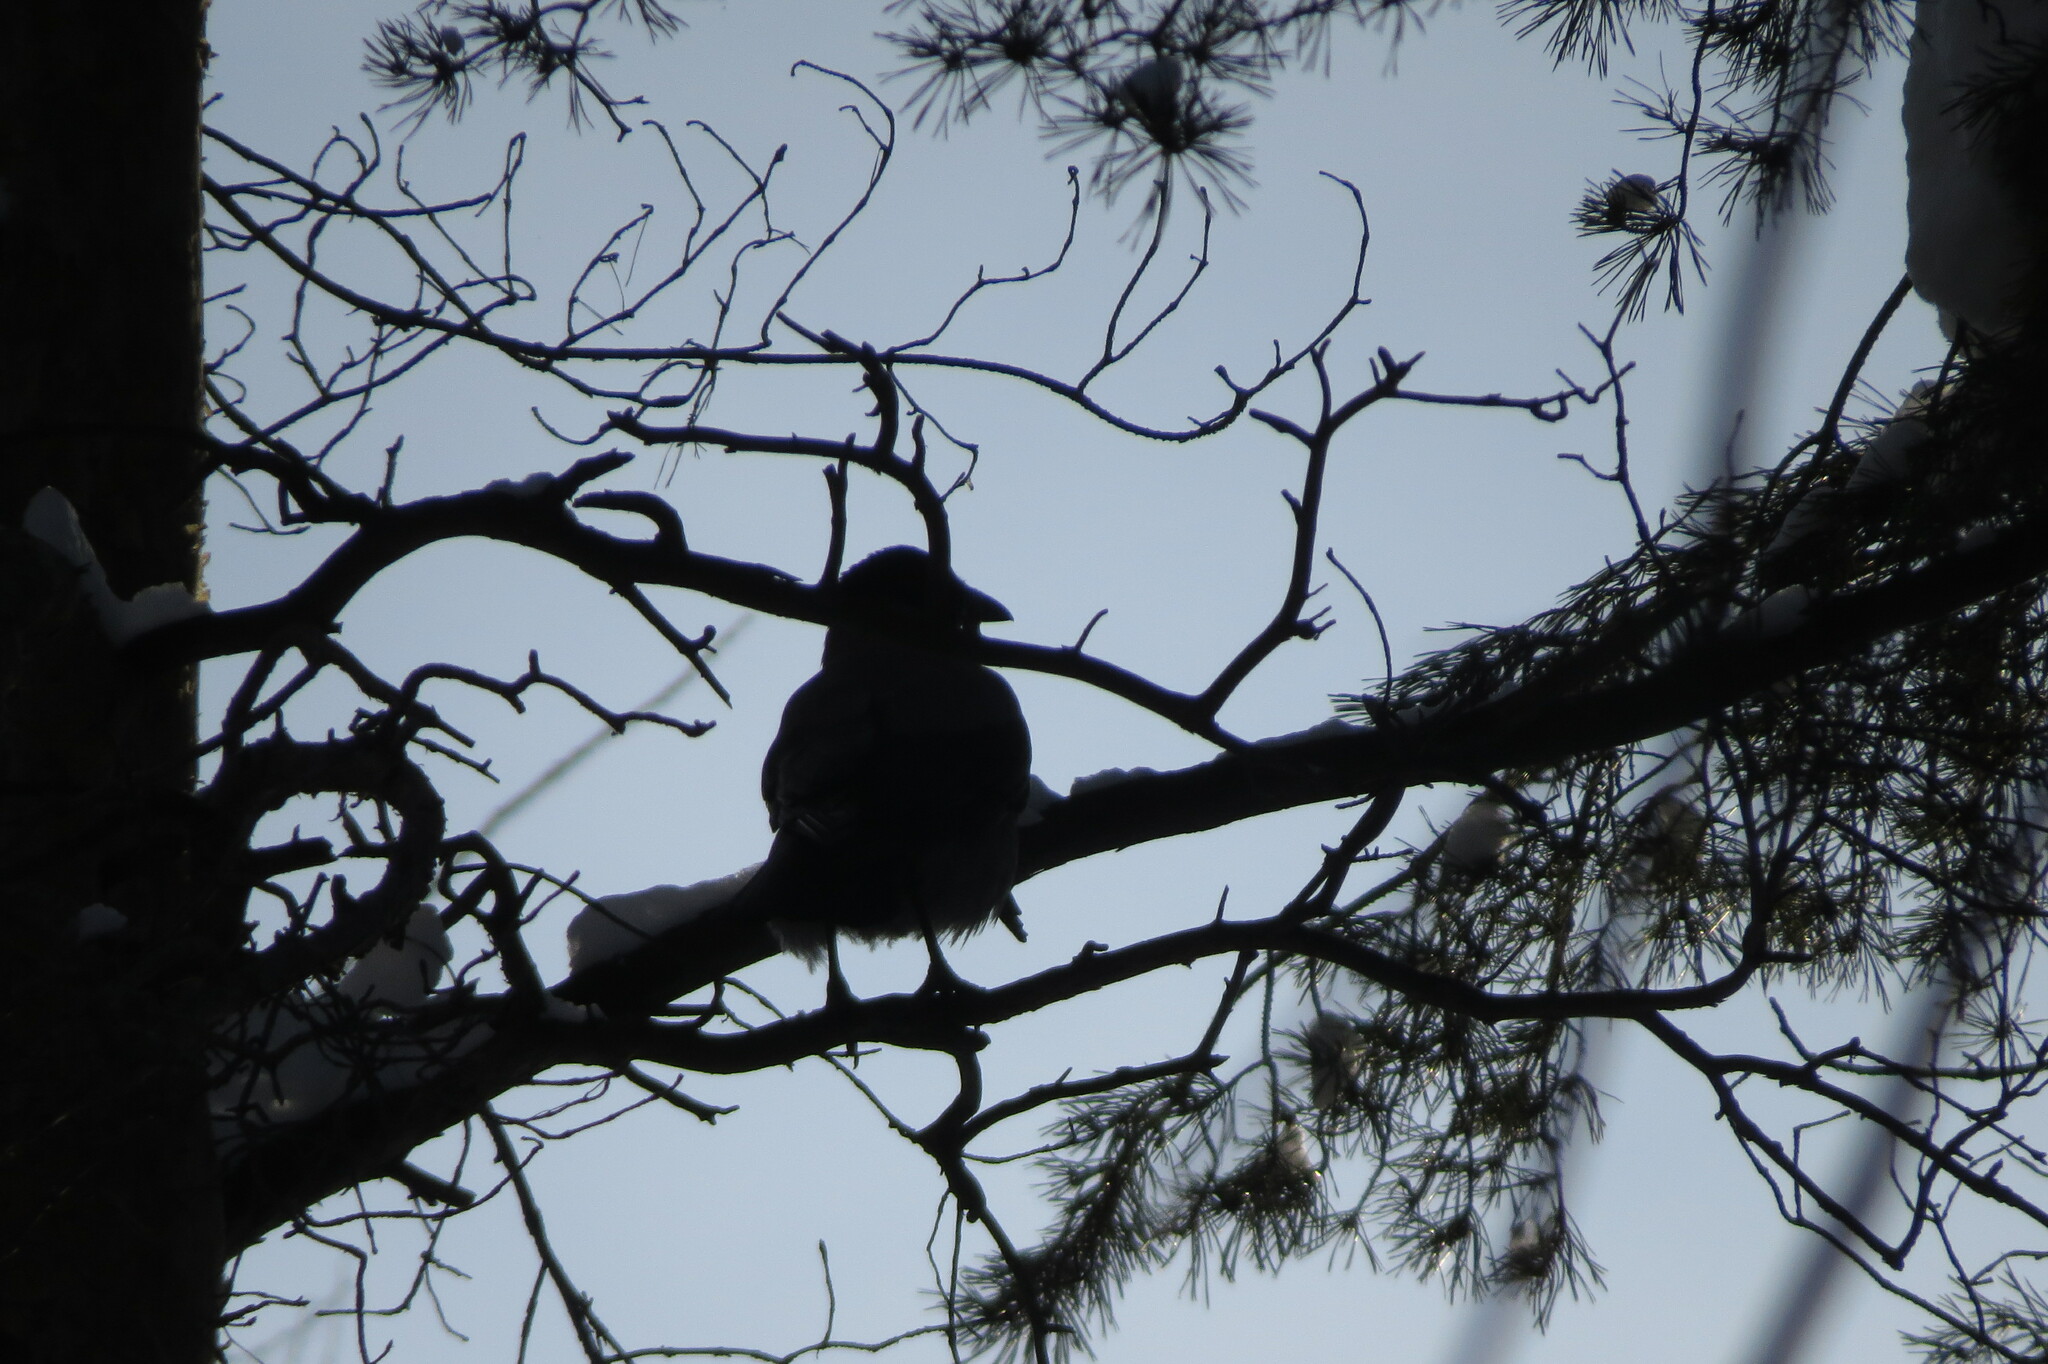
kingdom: Animalia
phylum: Chordata
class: Aves
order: Passeriformes
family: Corvidae
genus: Corvus
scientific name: Corvus cornix
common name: Hooded crow
